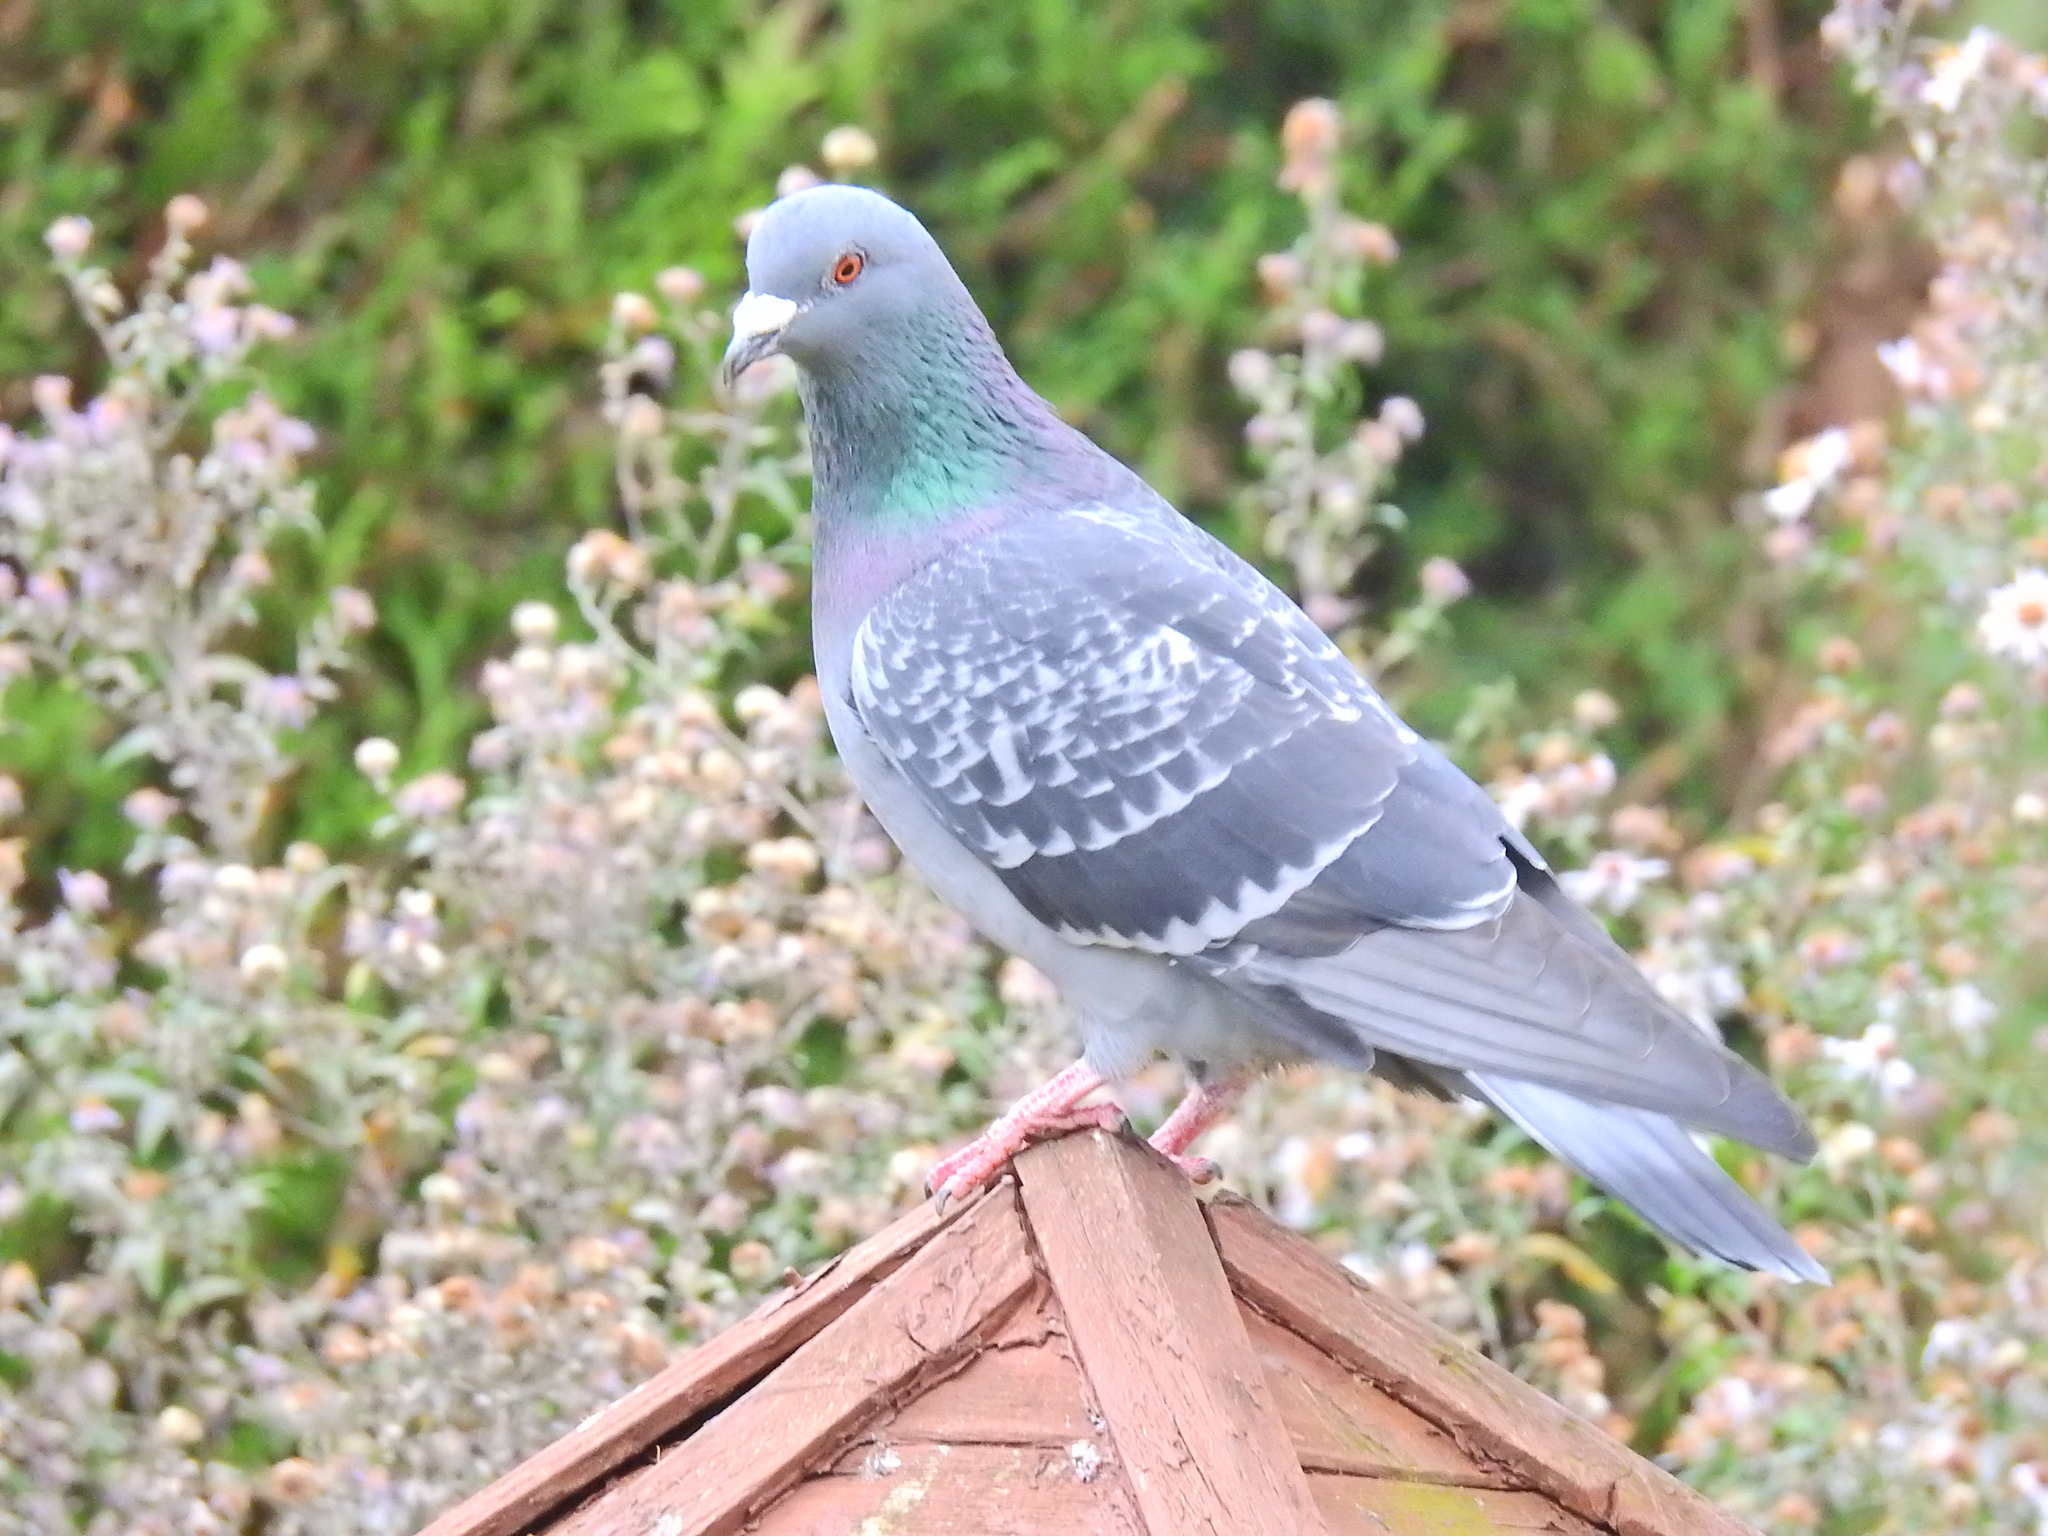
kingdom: Animalia
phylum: Chordata
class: Aves
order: Columbiformes
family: Columbidae
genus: Columba
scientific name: Columba livia
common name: Rock pigeon
